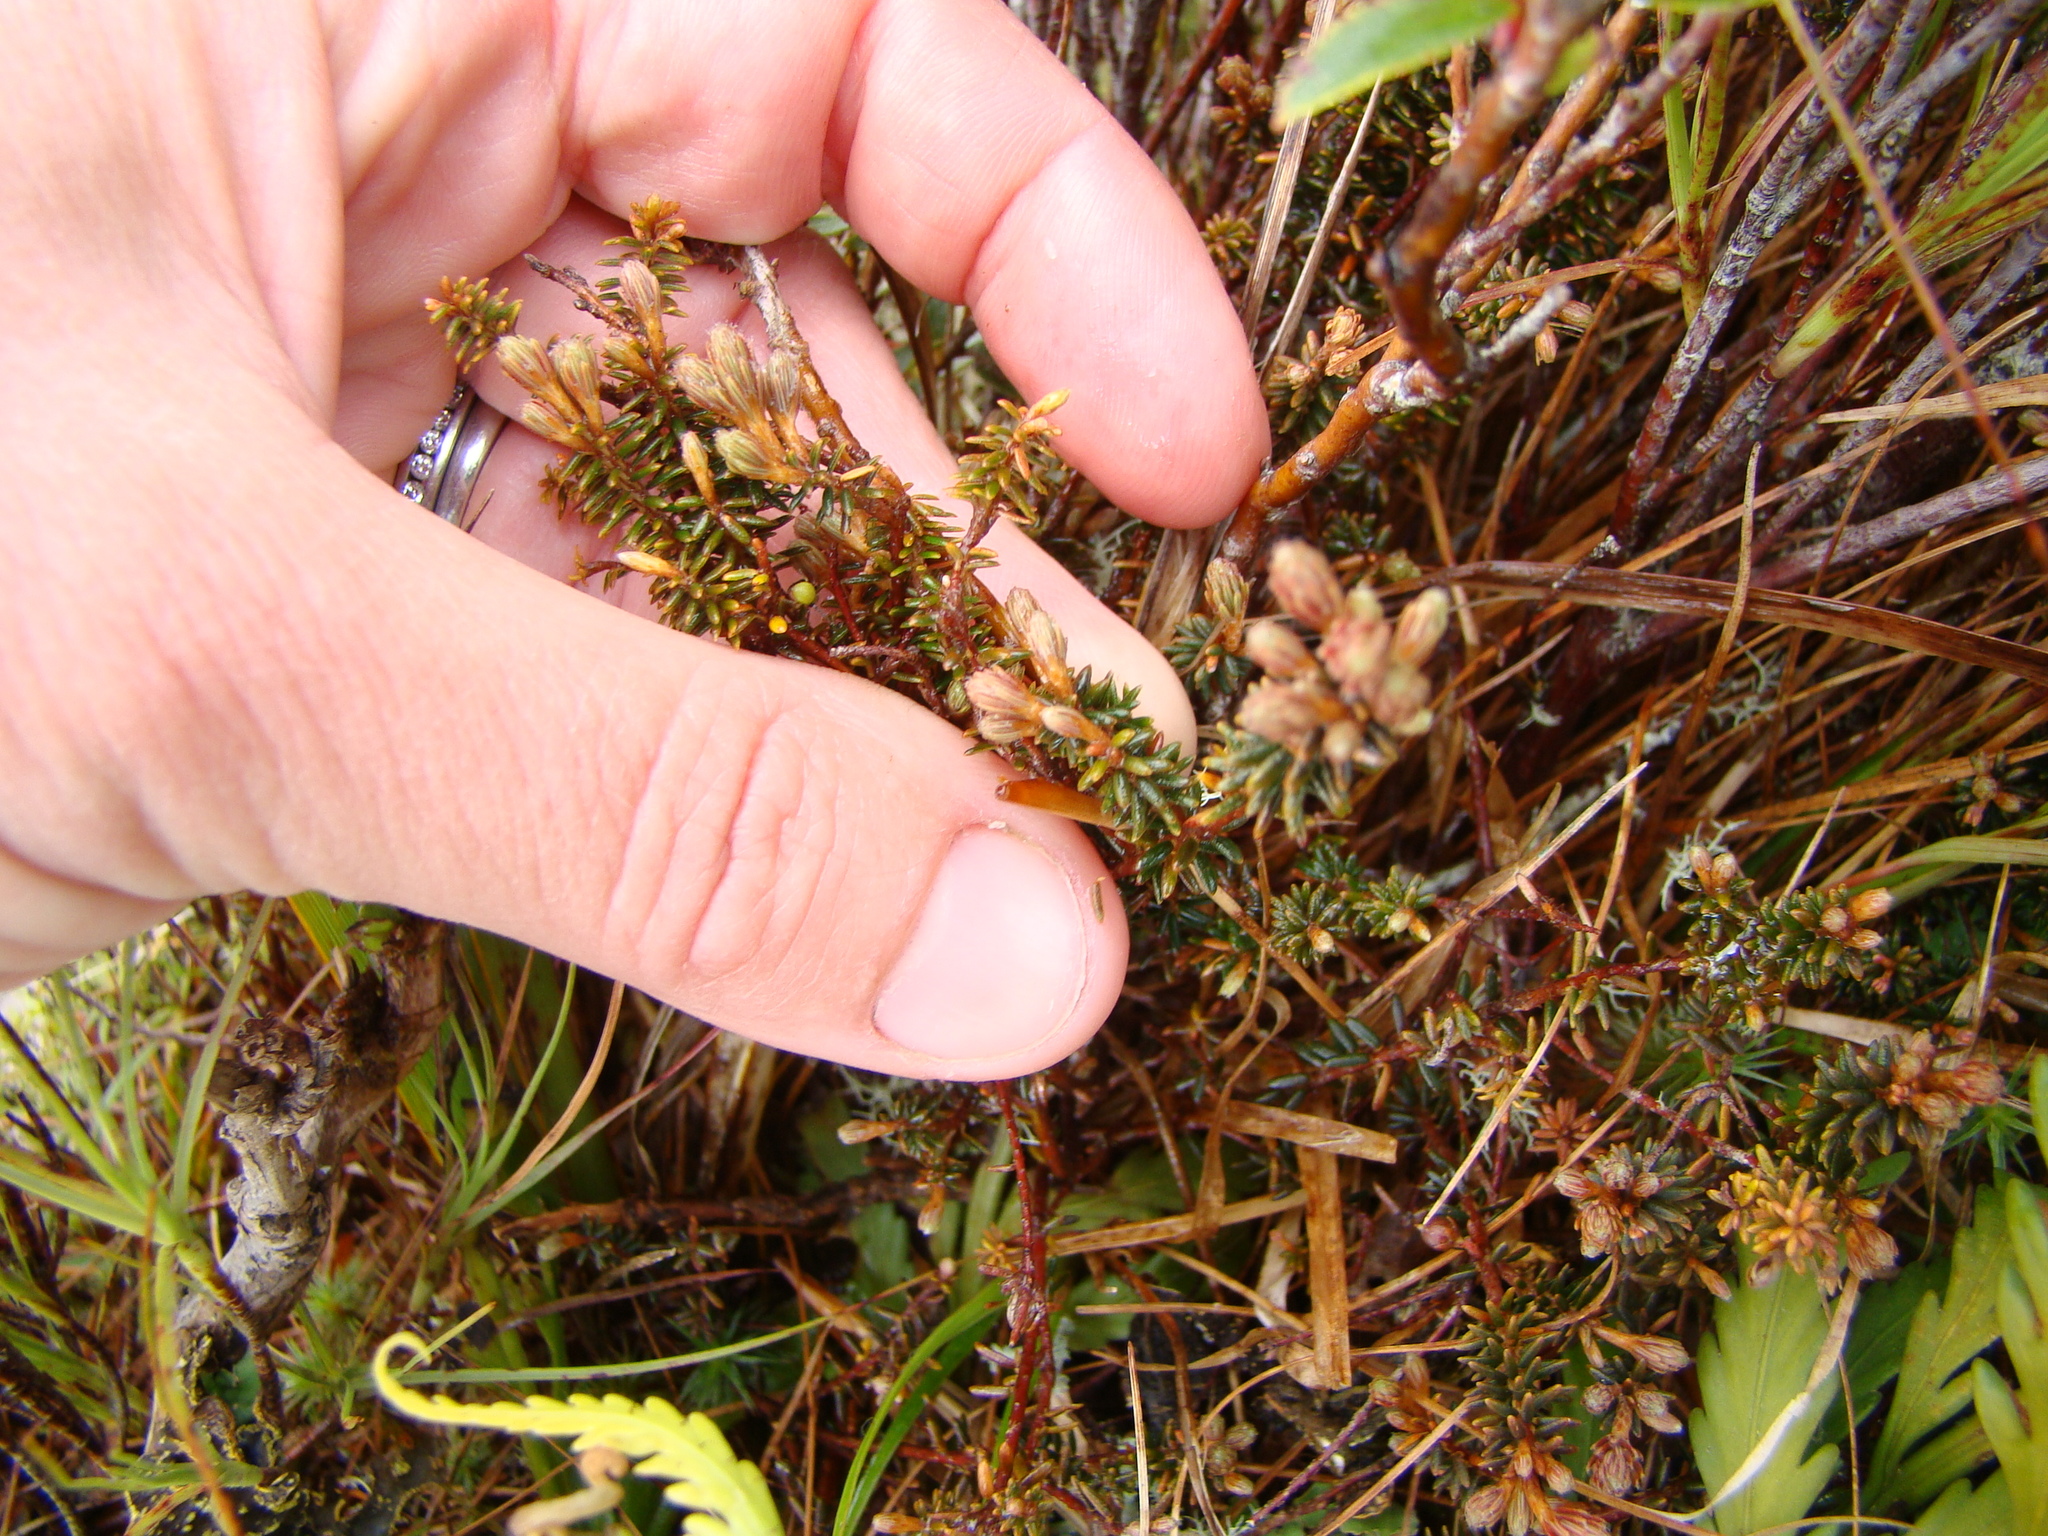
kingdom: Plantae
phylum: Tracheophyta
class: Magnoliopsida
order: Ericales
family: Ericaceae
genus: Androstoma
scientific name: Androstoma empetrifolia
